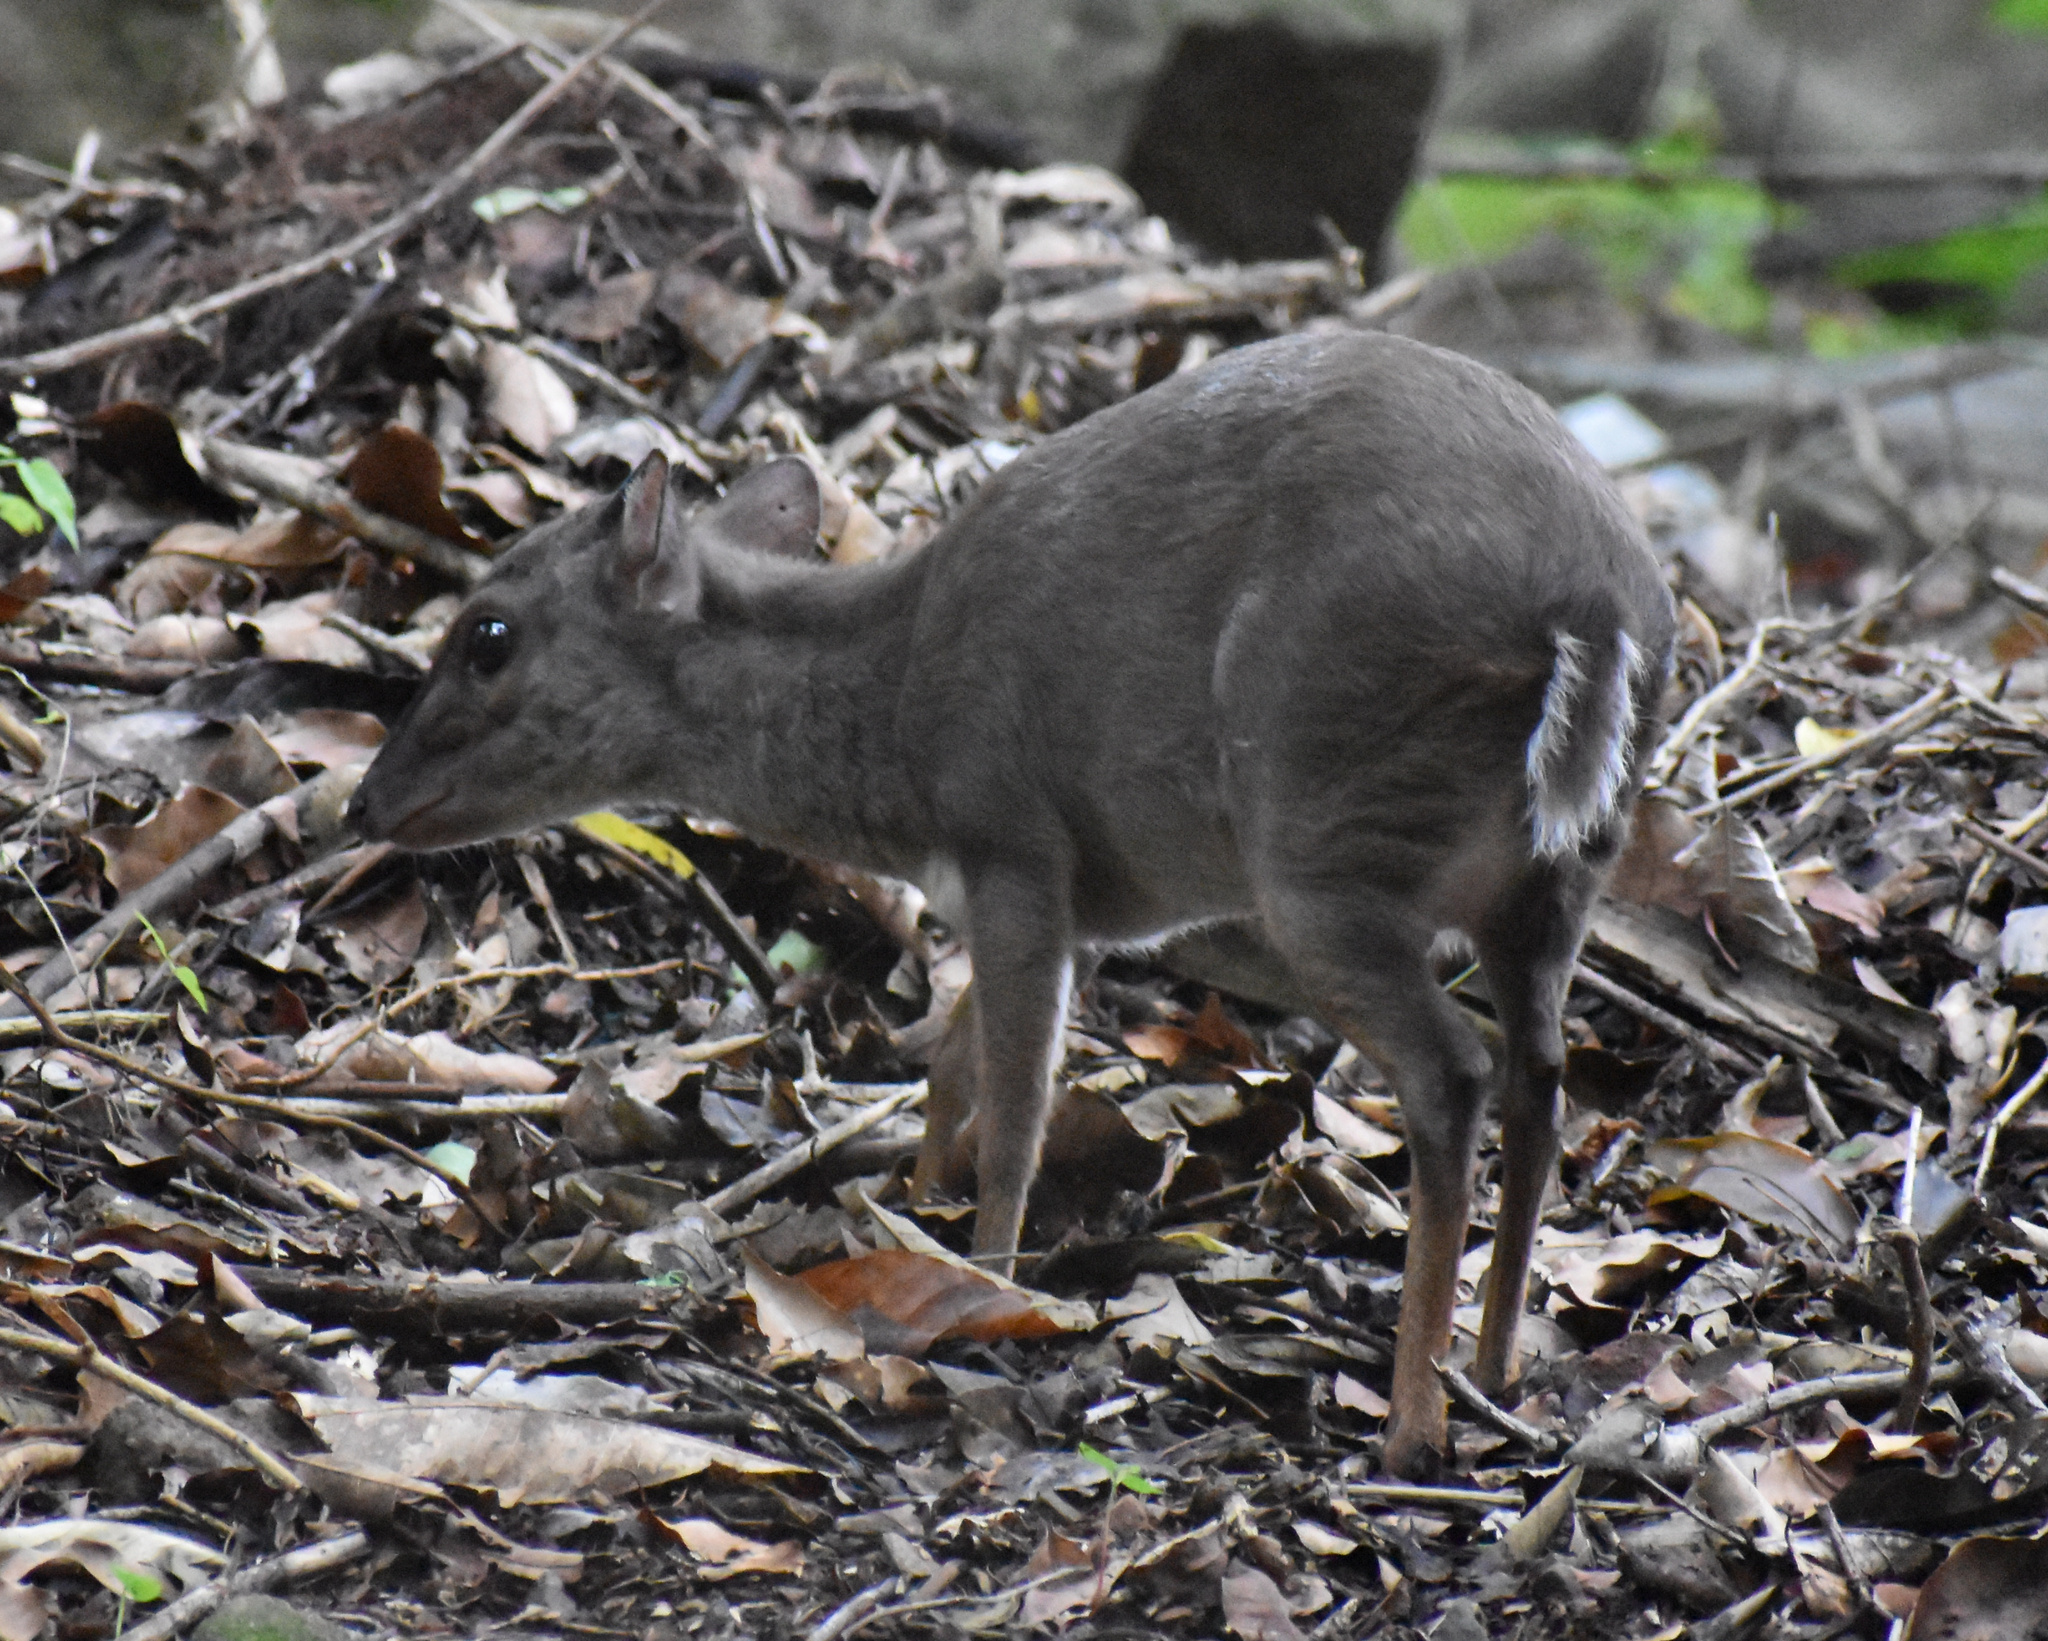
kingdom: Animalia
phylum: Chordata
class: Mammalia
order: Artiodactyla
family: Bovidae
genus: Philantomba
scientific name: Philantomba monticola
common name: Blue duiker
